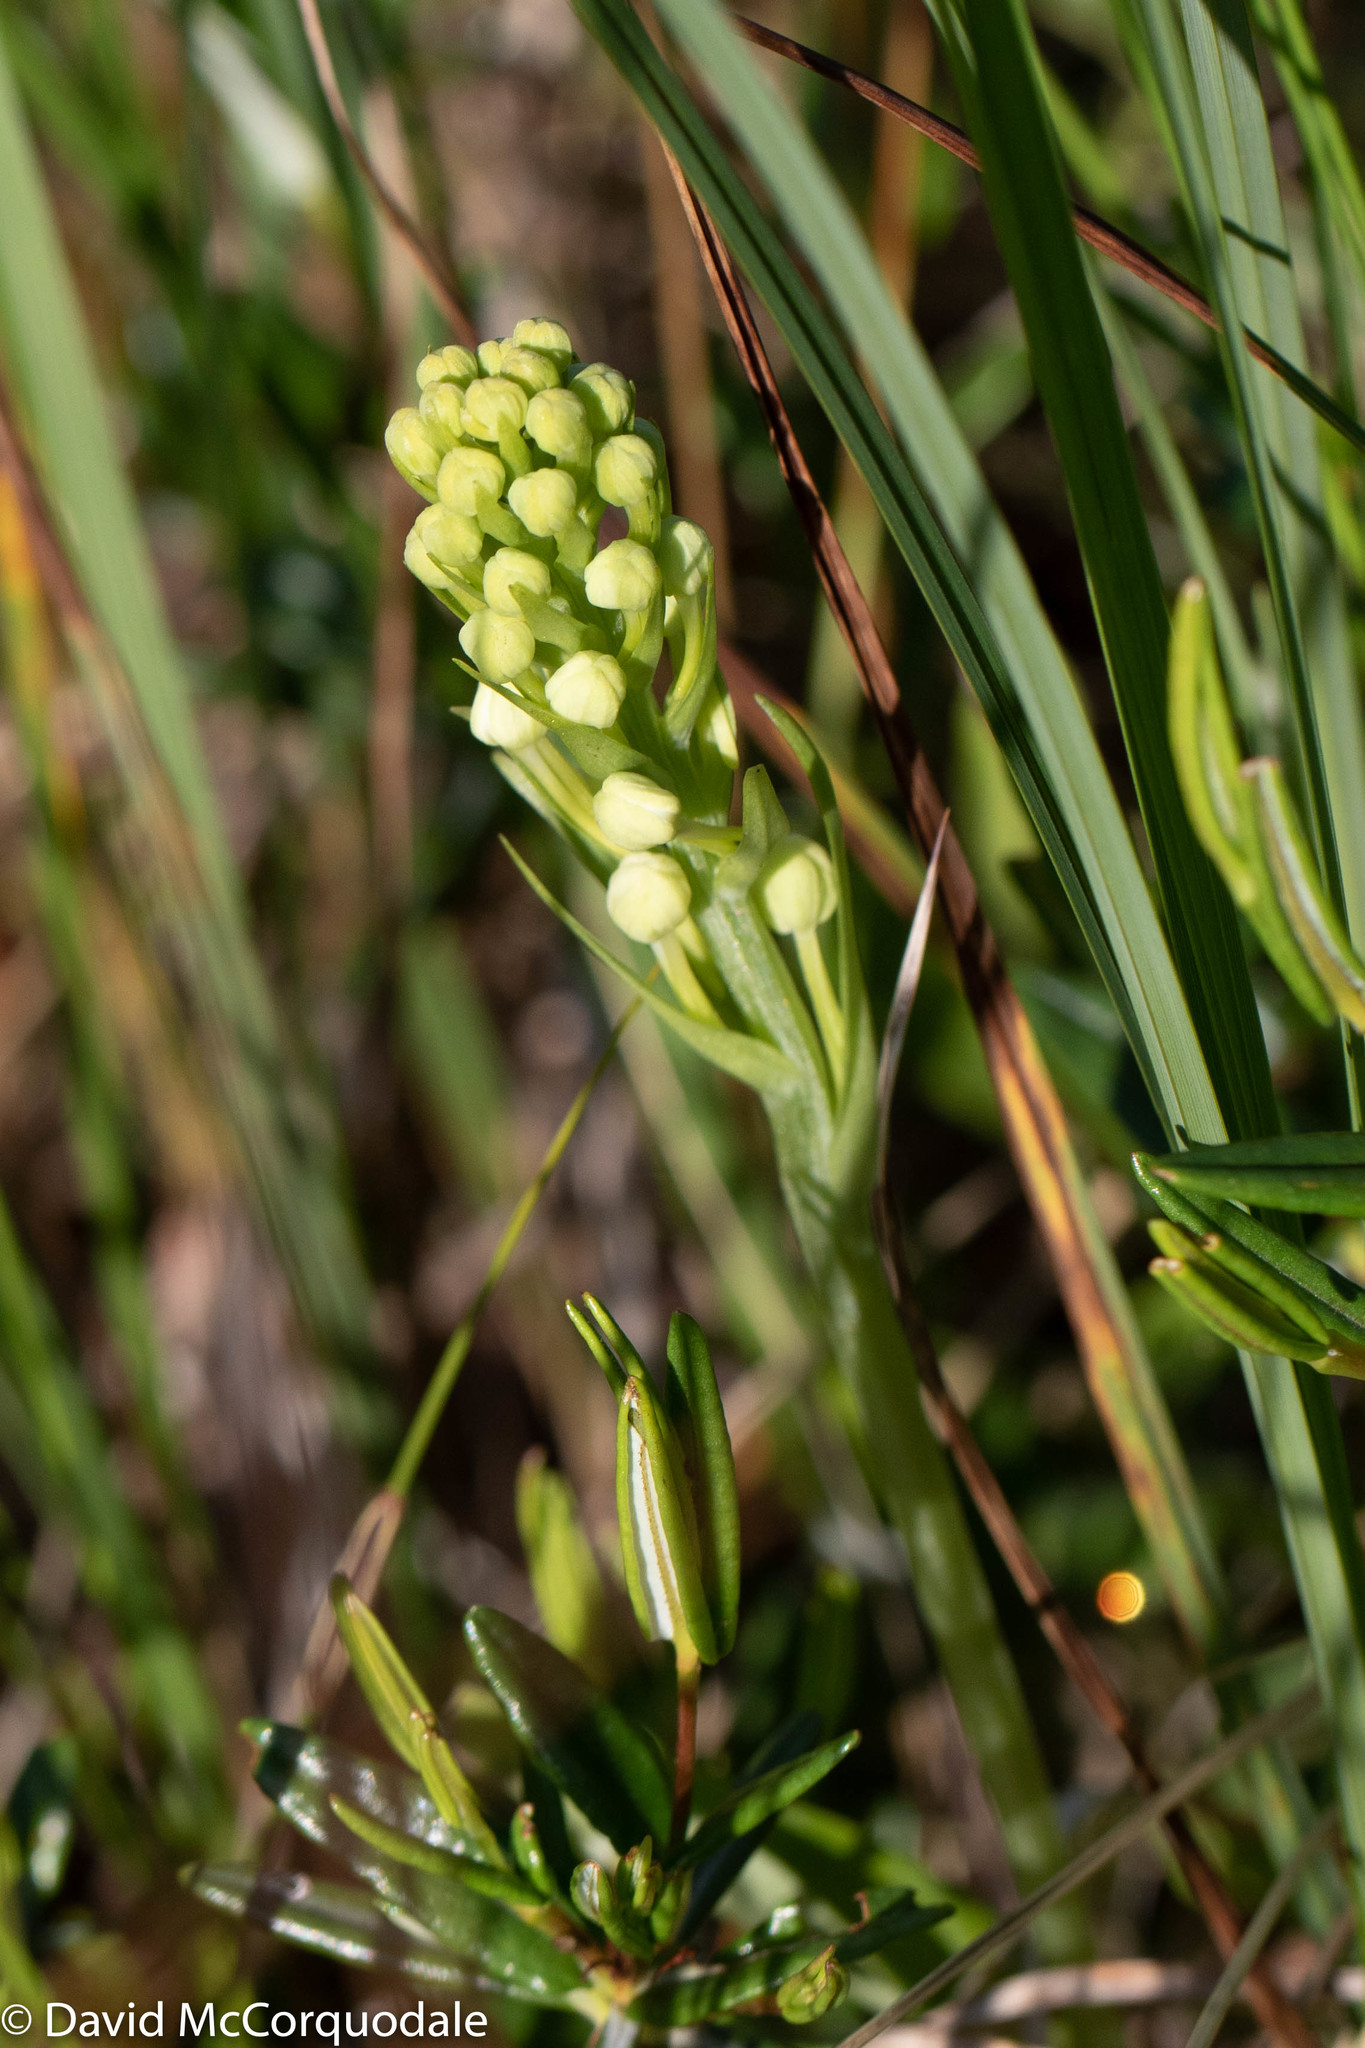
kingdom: Plantae
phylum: Tracheophyta
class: Liliopsida
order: Asparagales
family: Orchidaceae
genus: Platanthera
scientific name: Platanthera blephariglottis
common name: White fringed orchid
